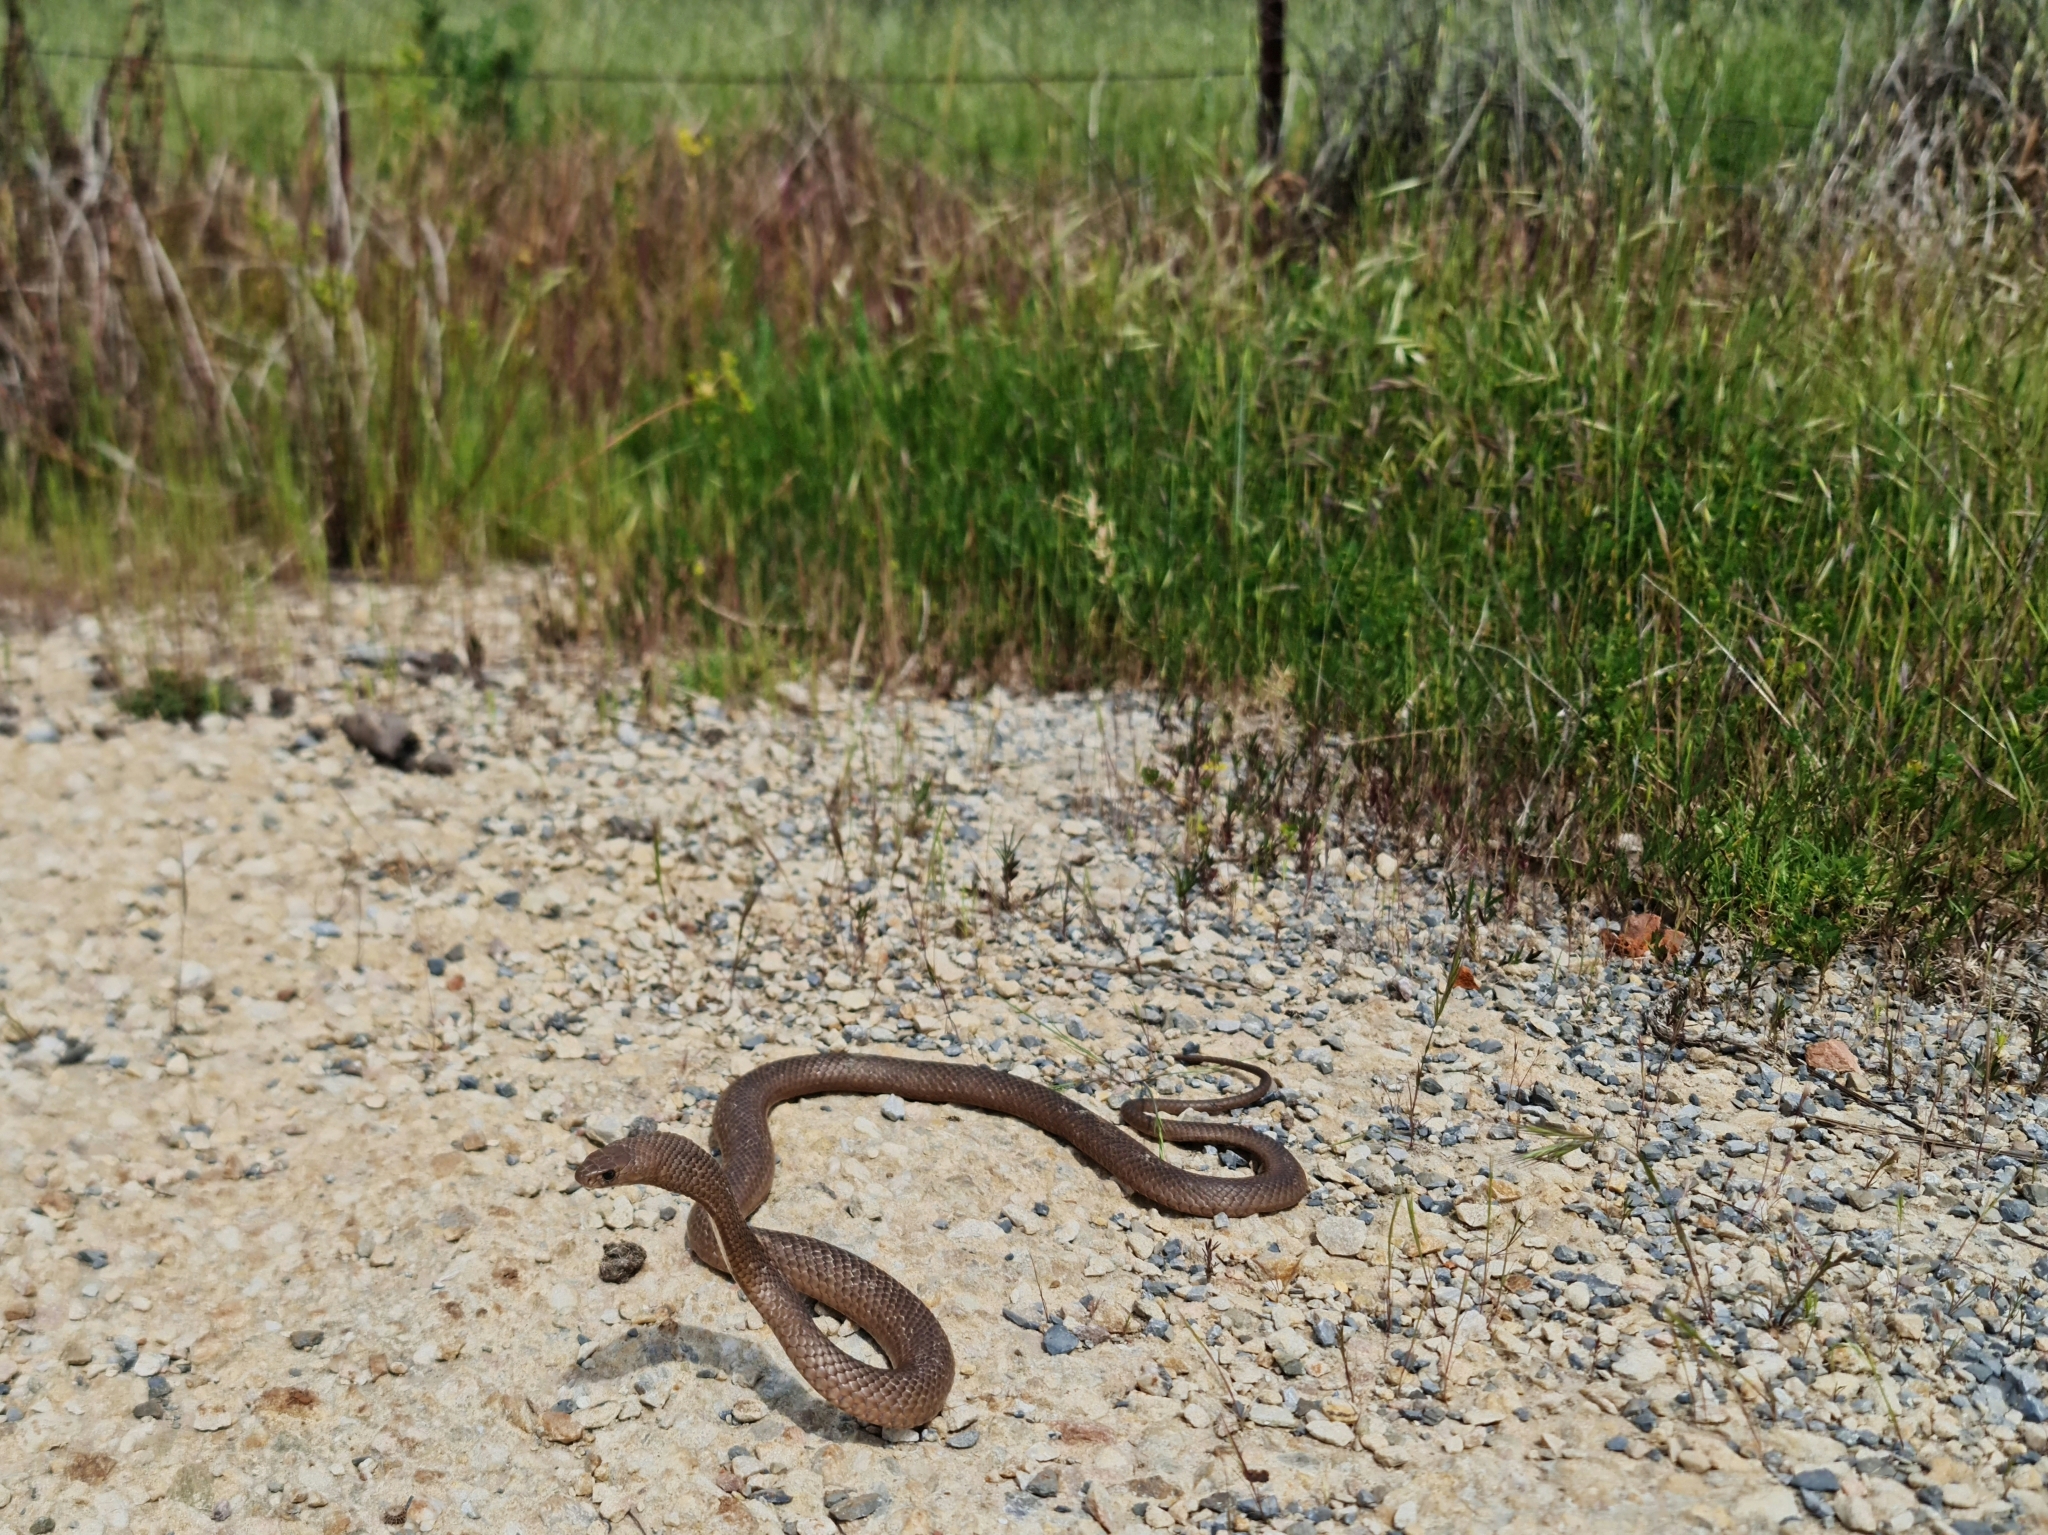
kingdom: Animalia
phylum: Chordata
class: Squamata
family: Elapidae
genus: Pseudonaja
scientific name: Pseudonaja textilis
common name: Eastern brown snake
